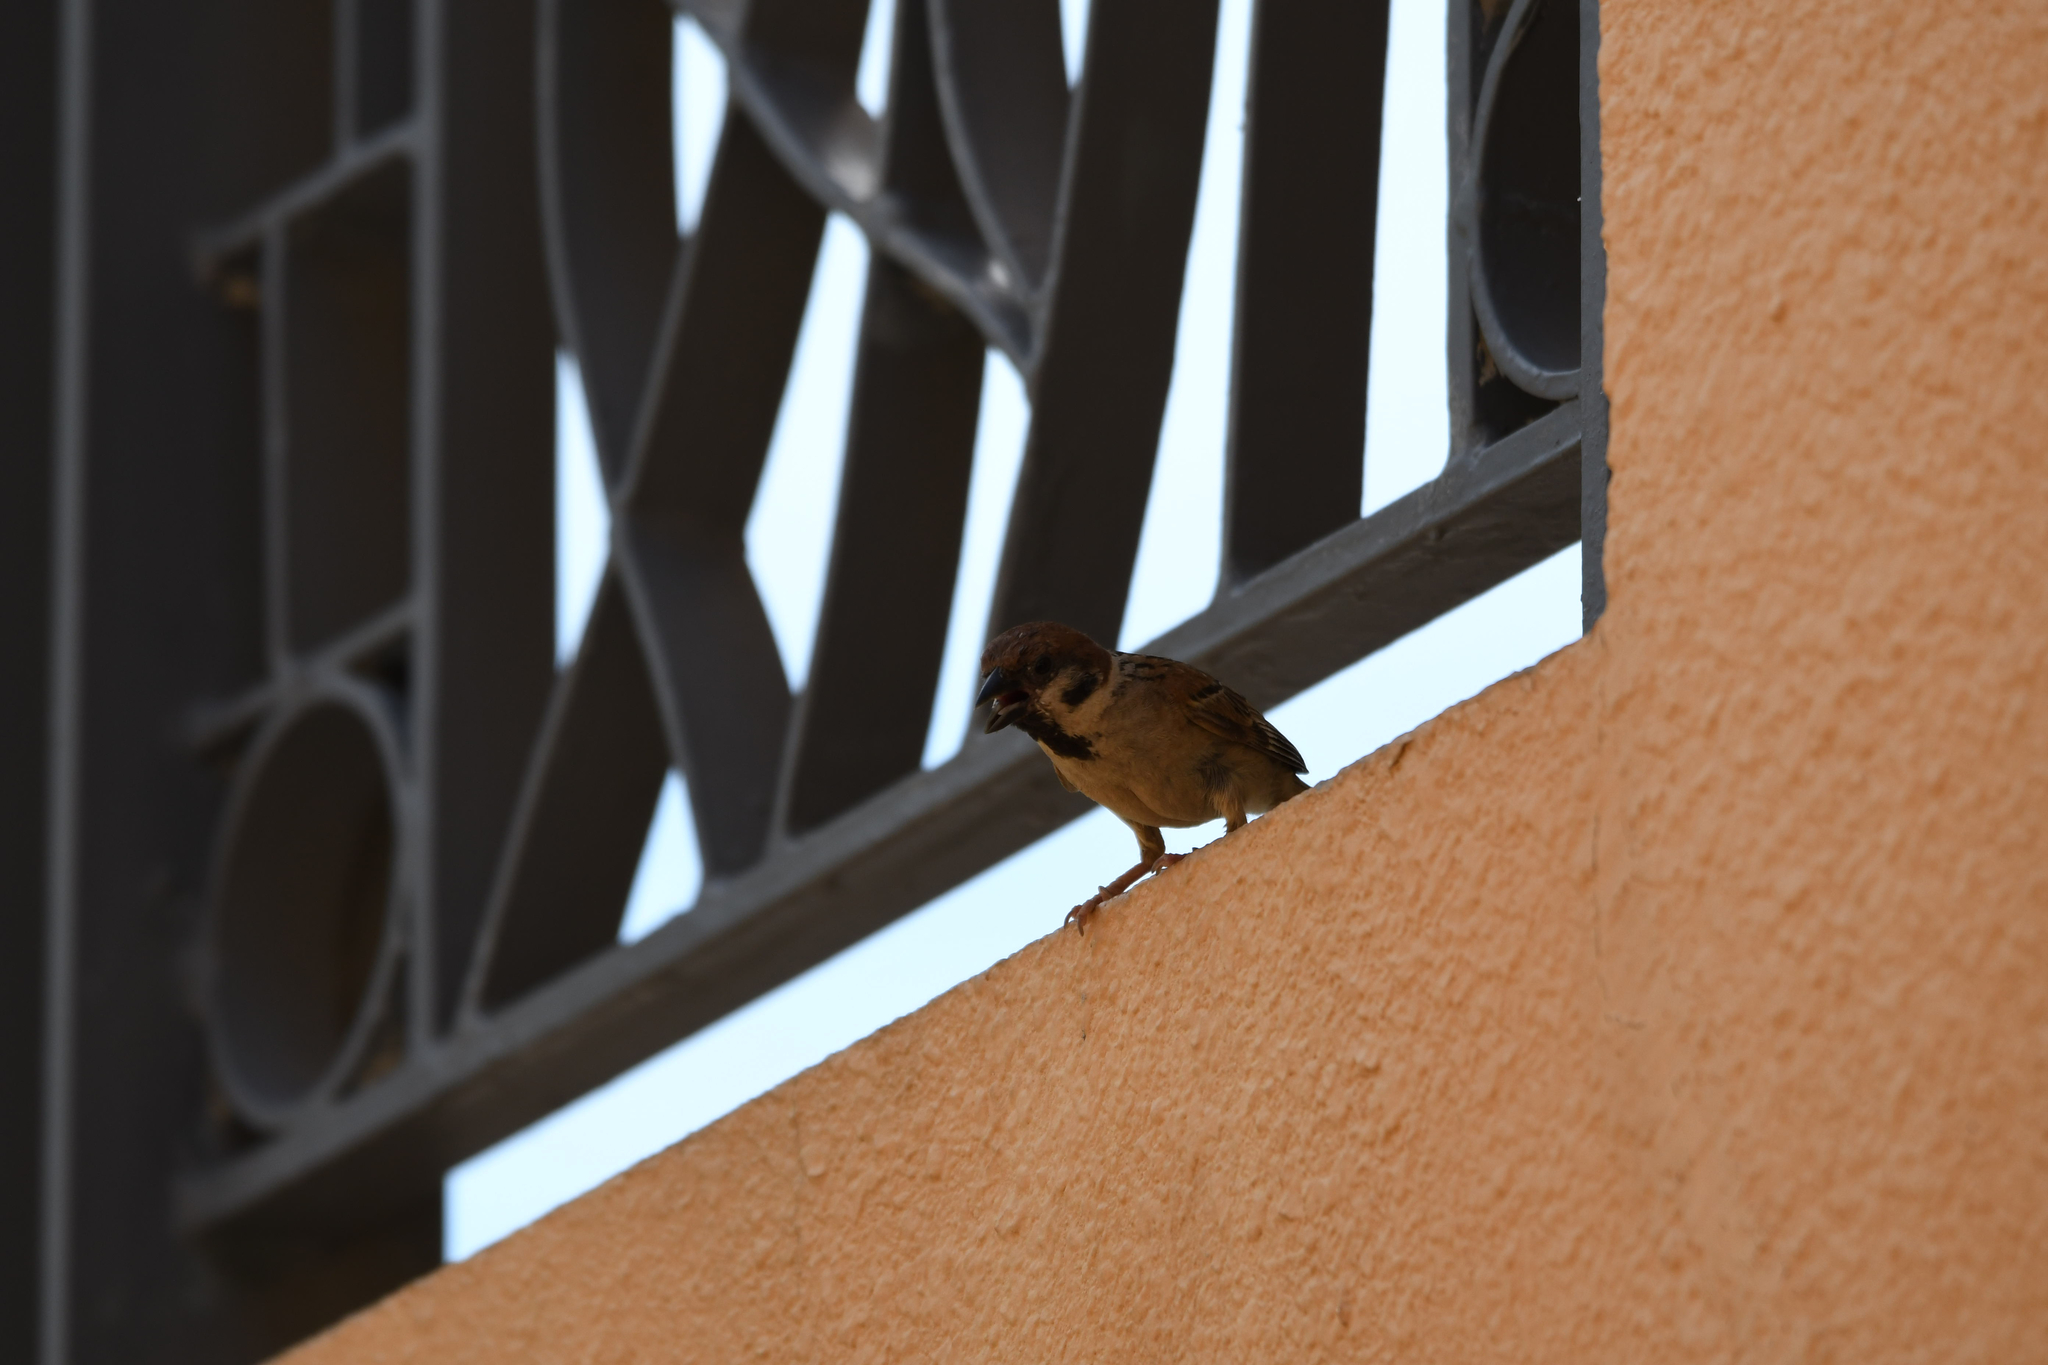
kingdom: Animalia
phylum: Chordata
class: Aves
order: Passeriformes
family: Passeridae
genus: Passer
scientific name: Passer montanus
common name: Eurasian tree sparrow
